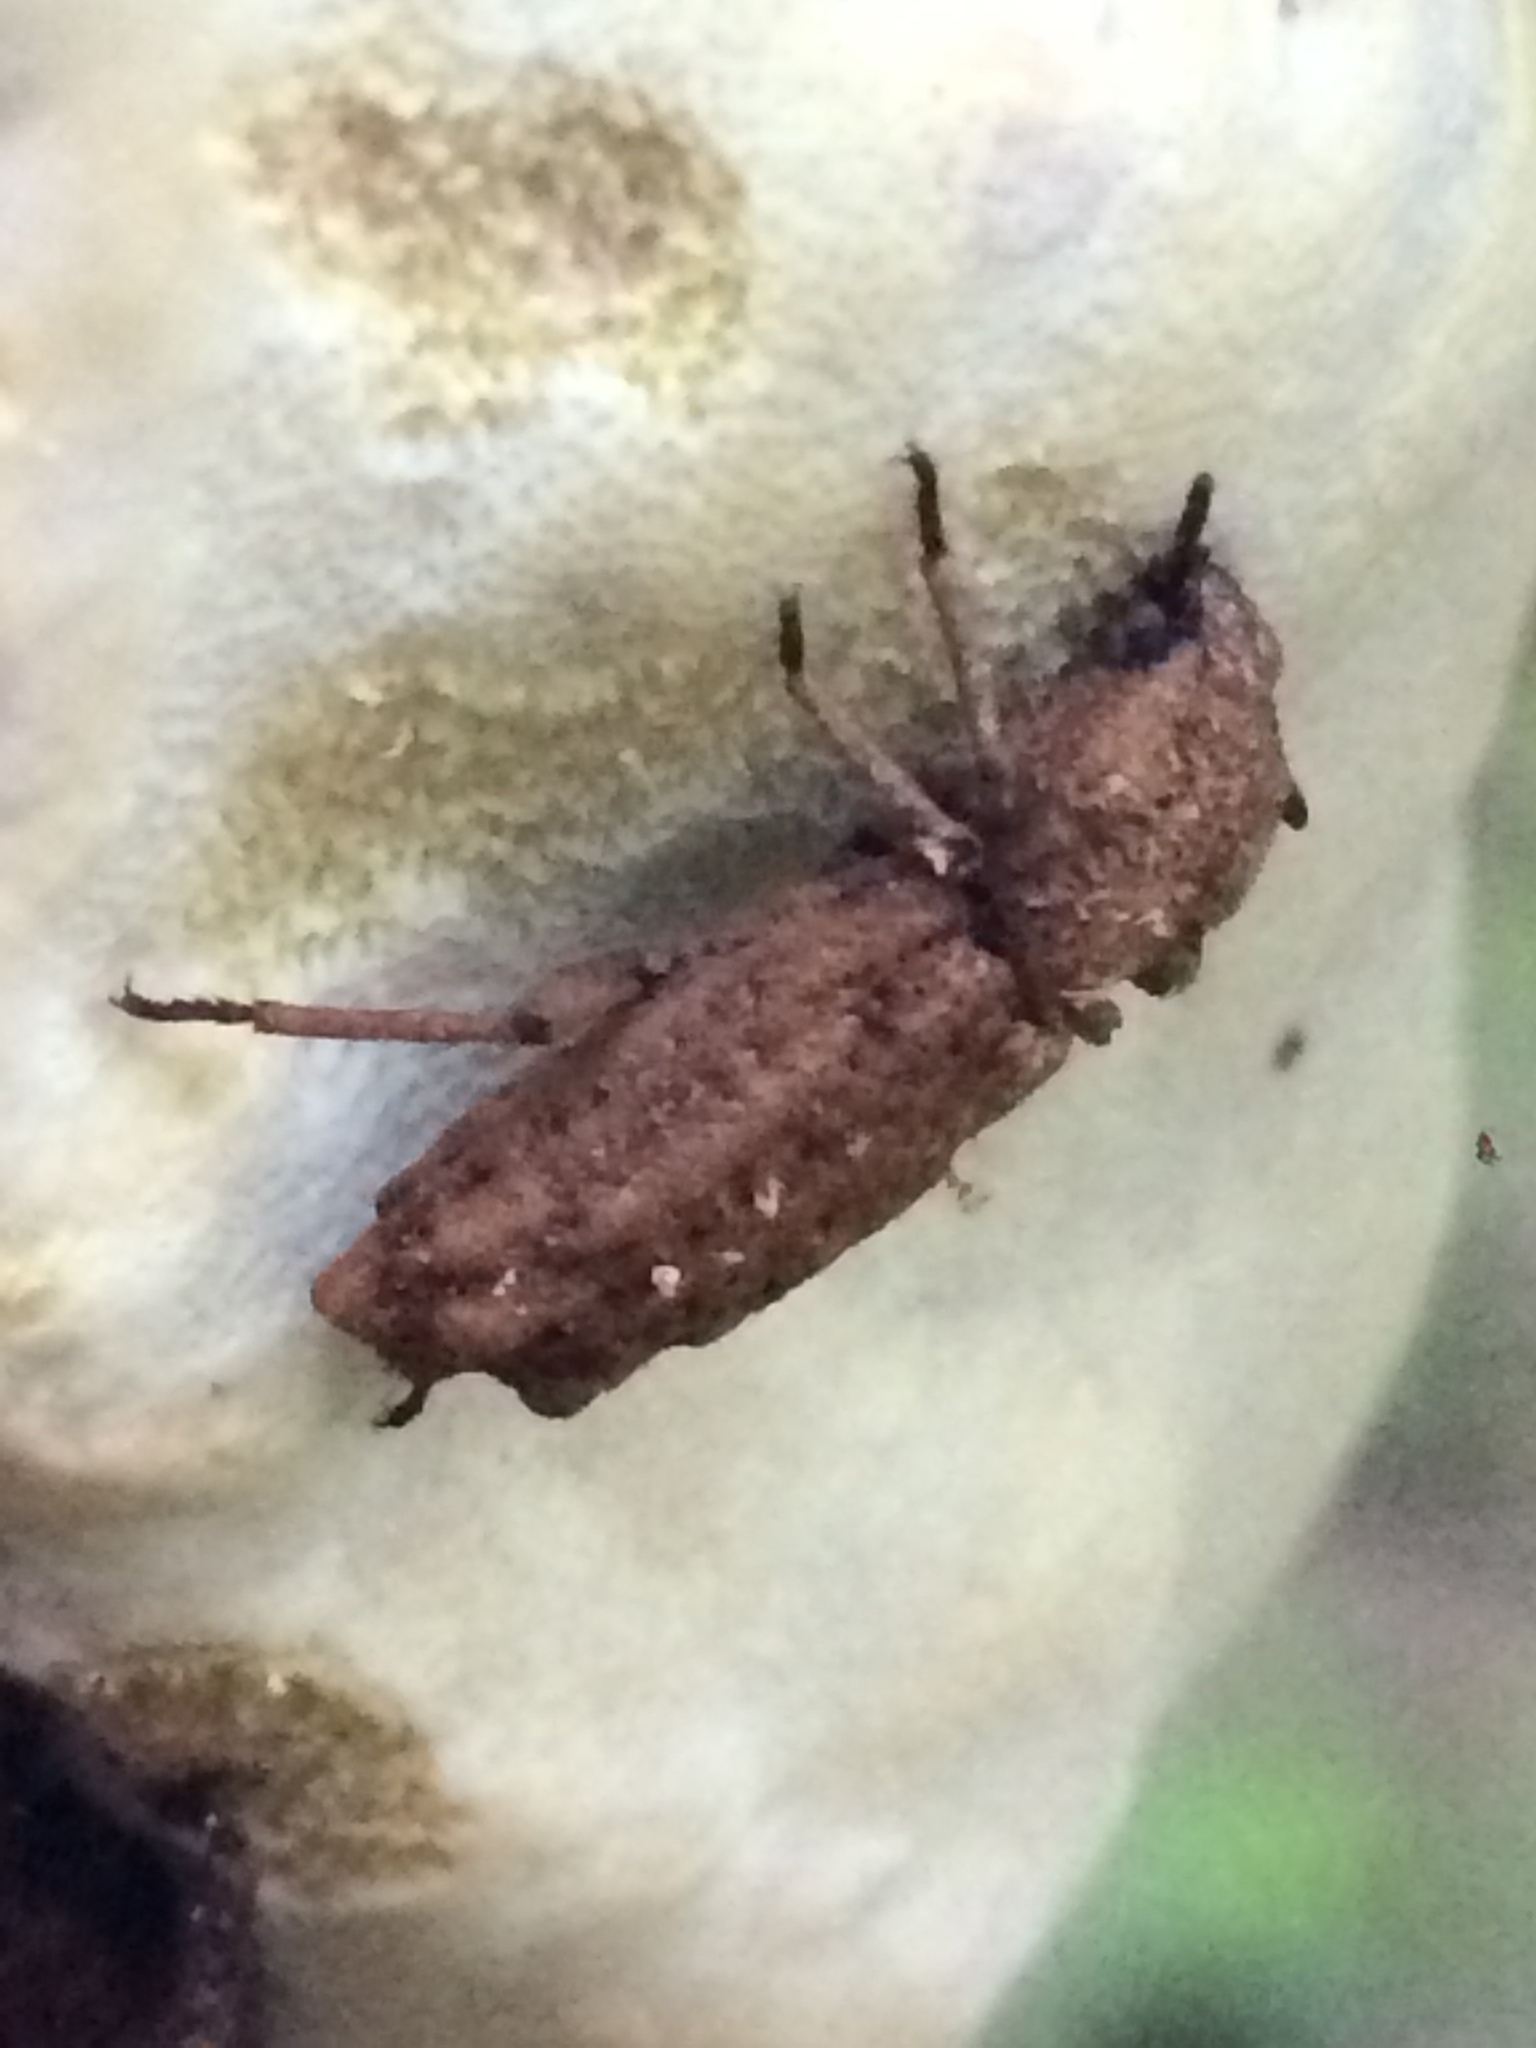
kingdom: Animalia
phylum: Arthropoda
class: Insecta
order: Coleoptera
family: Zopheridae
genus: Phellopsis
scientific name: Phellopsis porcata
